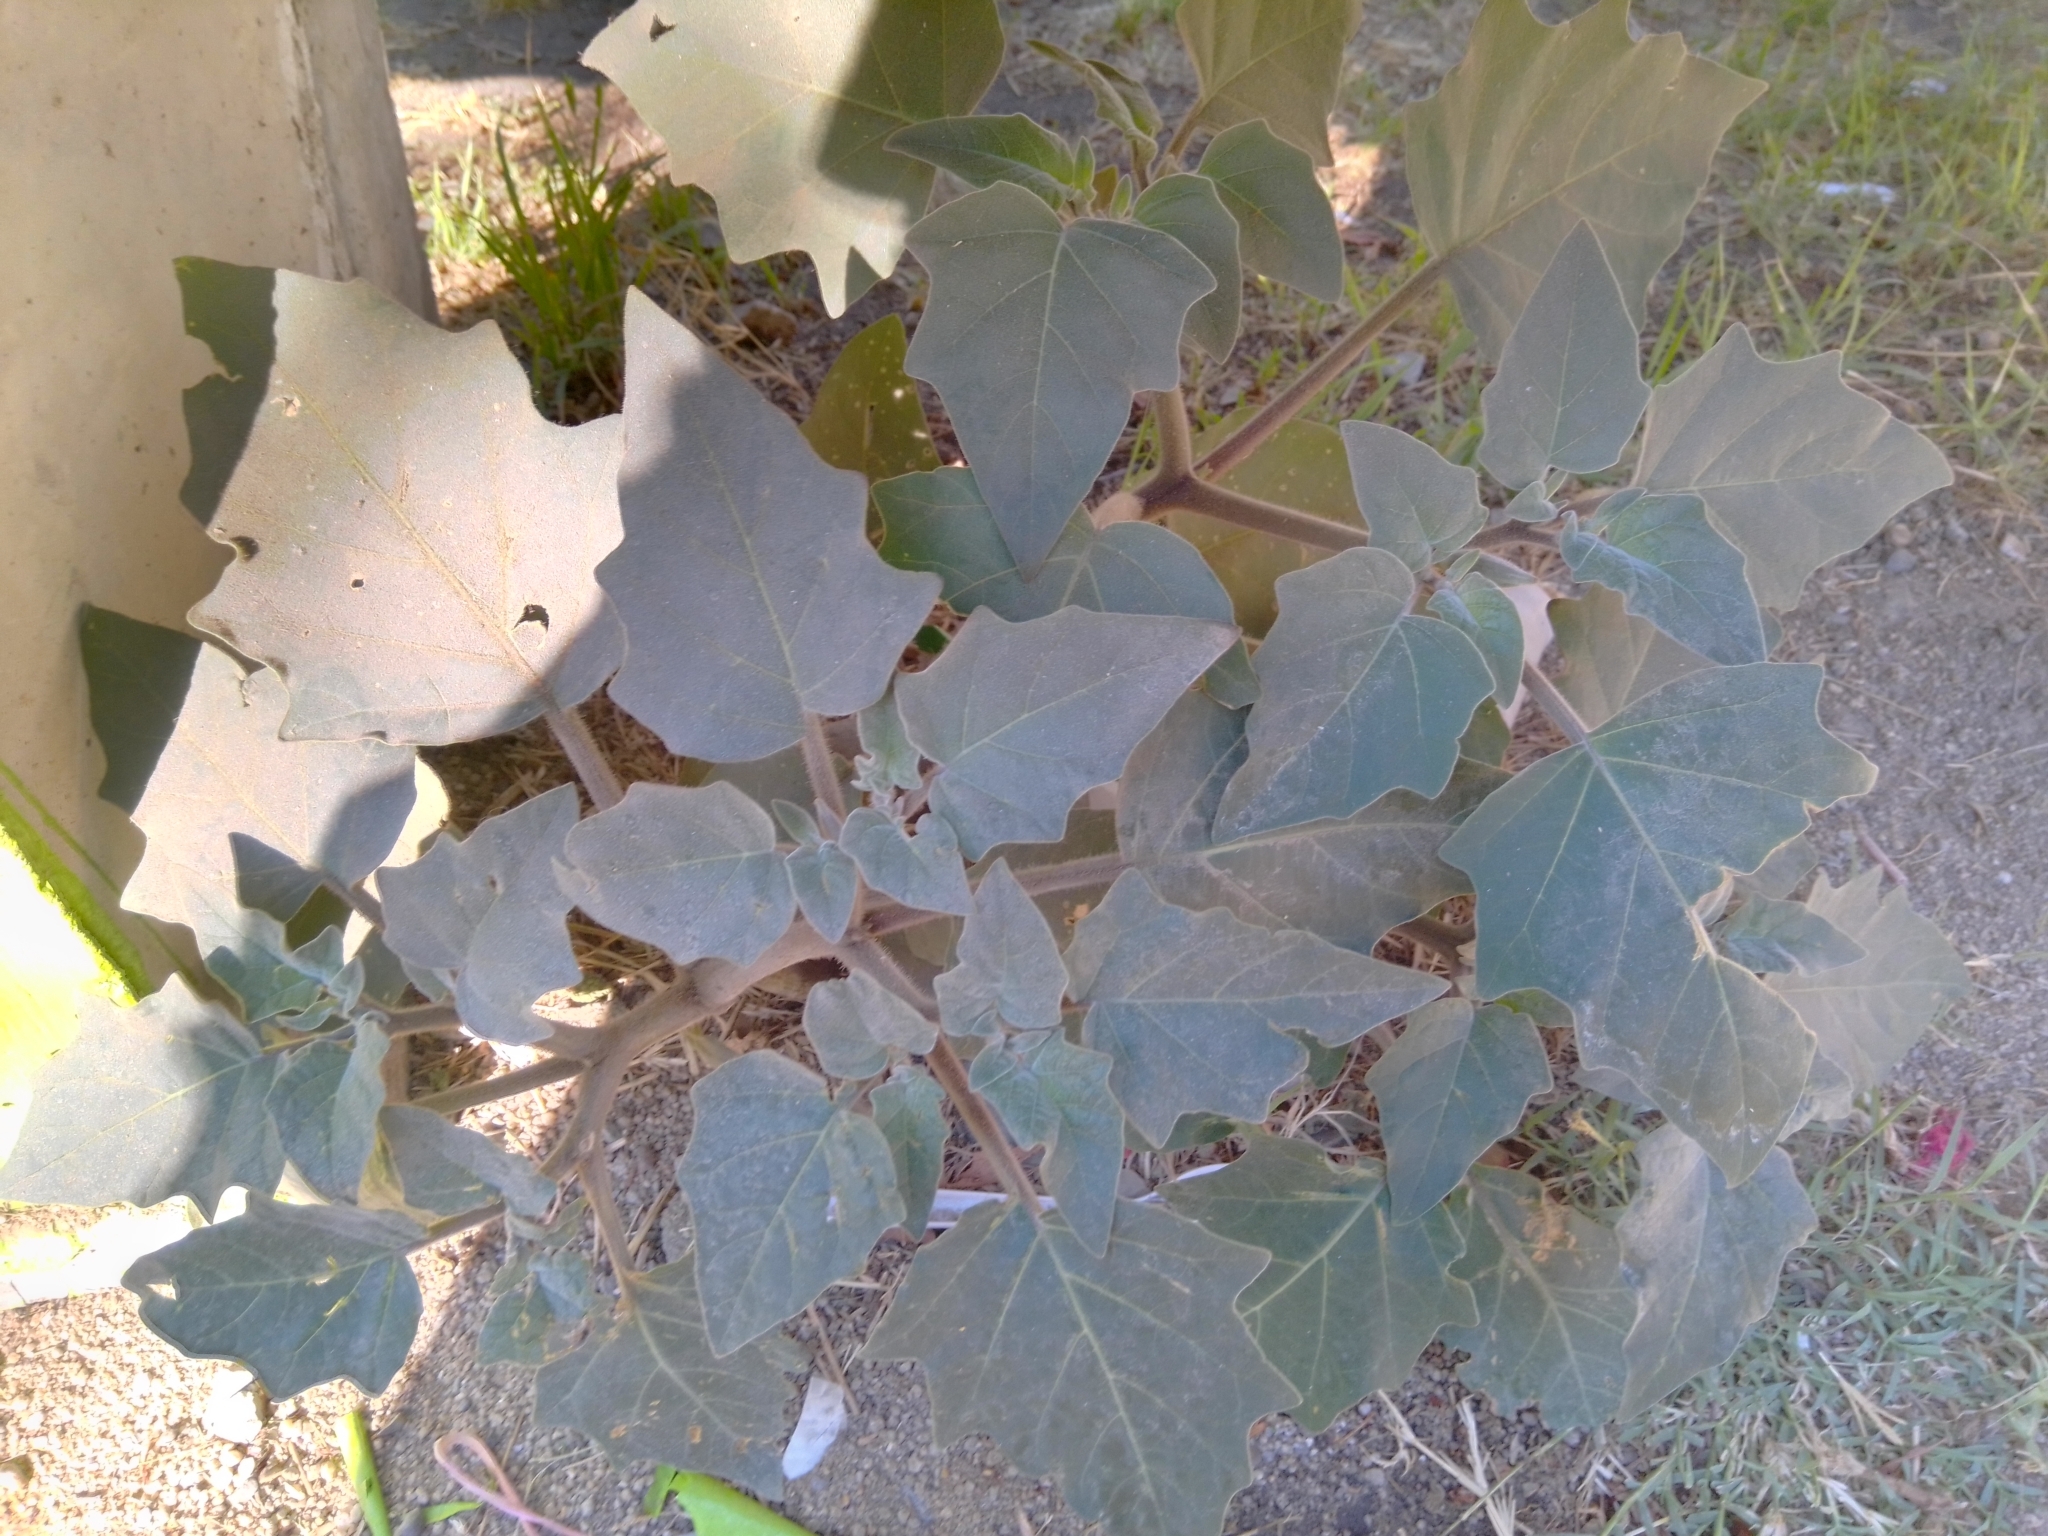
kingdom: Plantae
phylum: Tracheophyta
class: Magnoliopsida
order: Solanales
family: Solanaceae
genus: Datura
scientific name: Datura innoxia
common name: Downy thorn-apple
